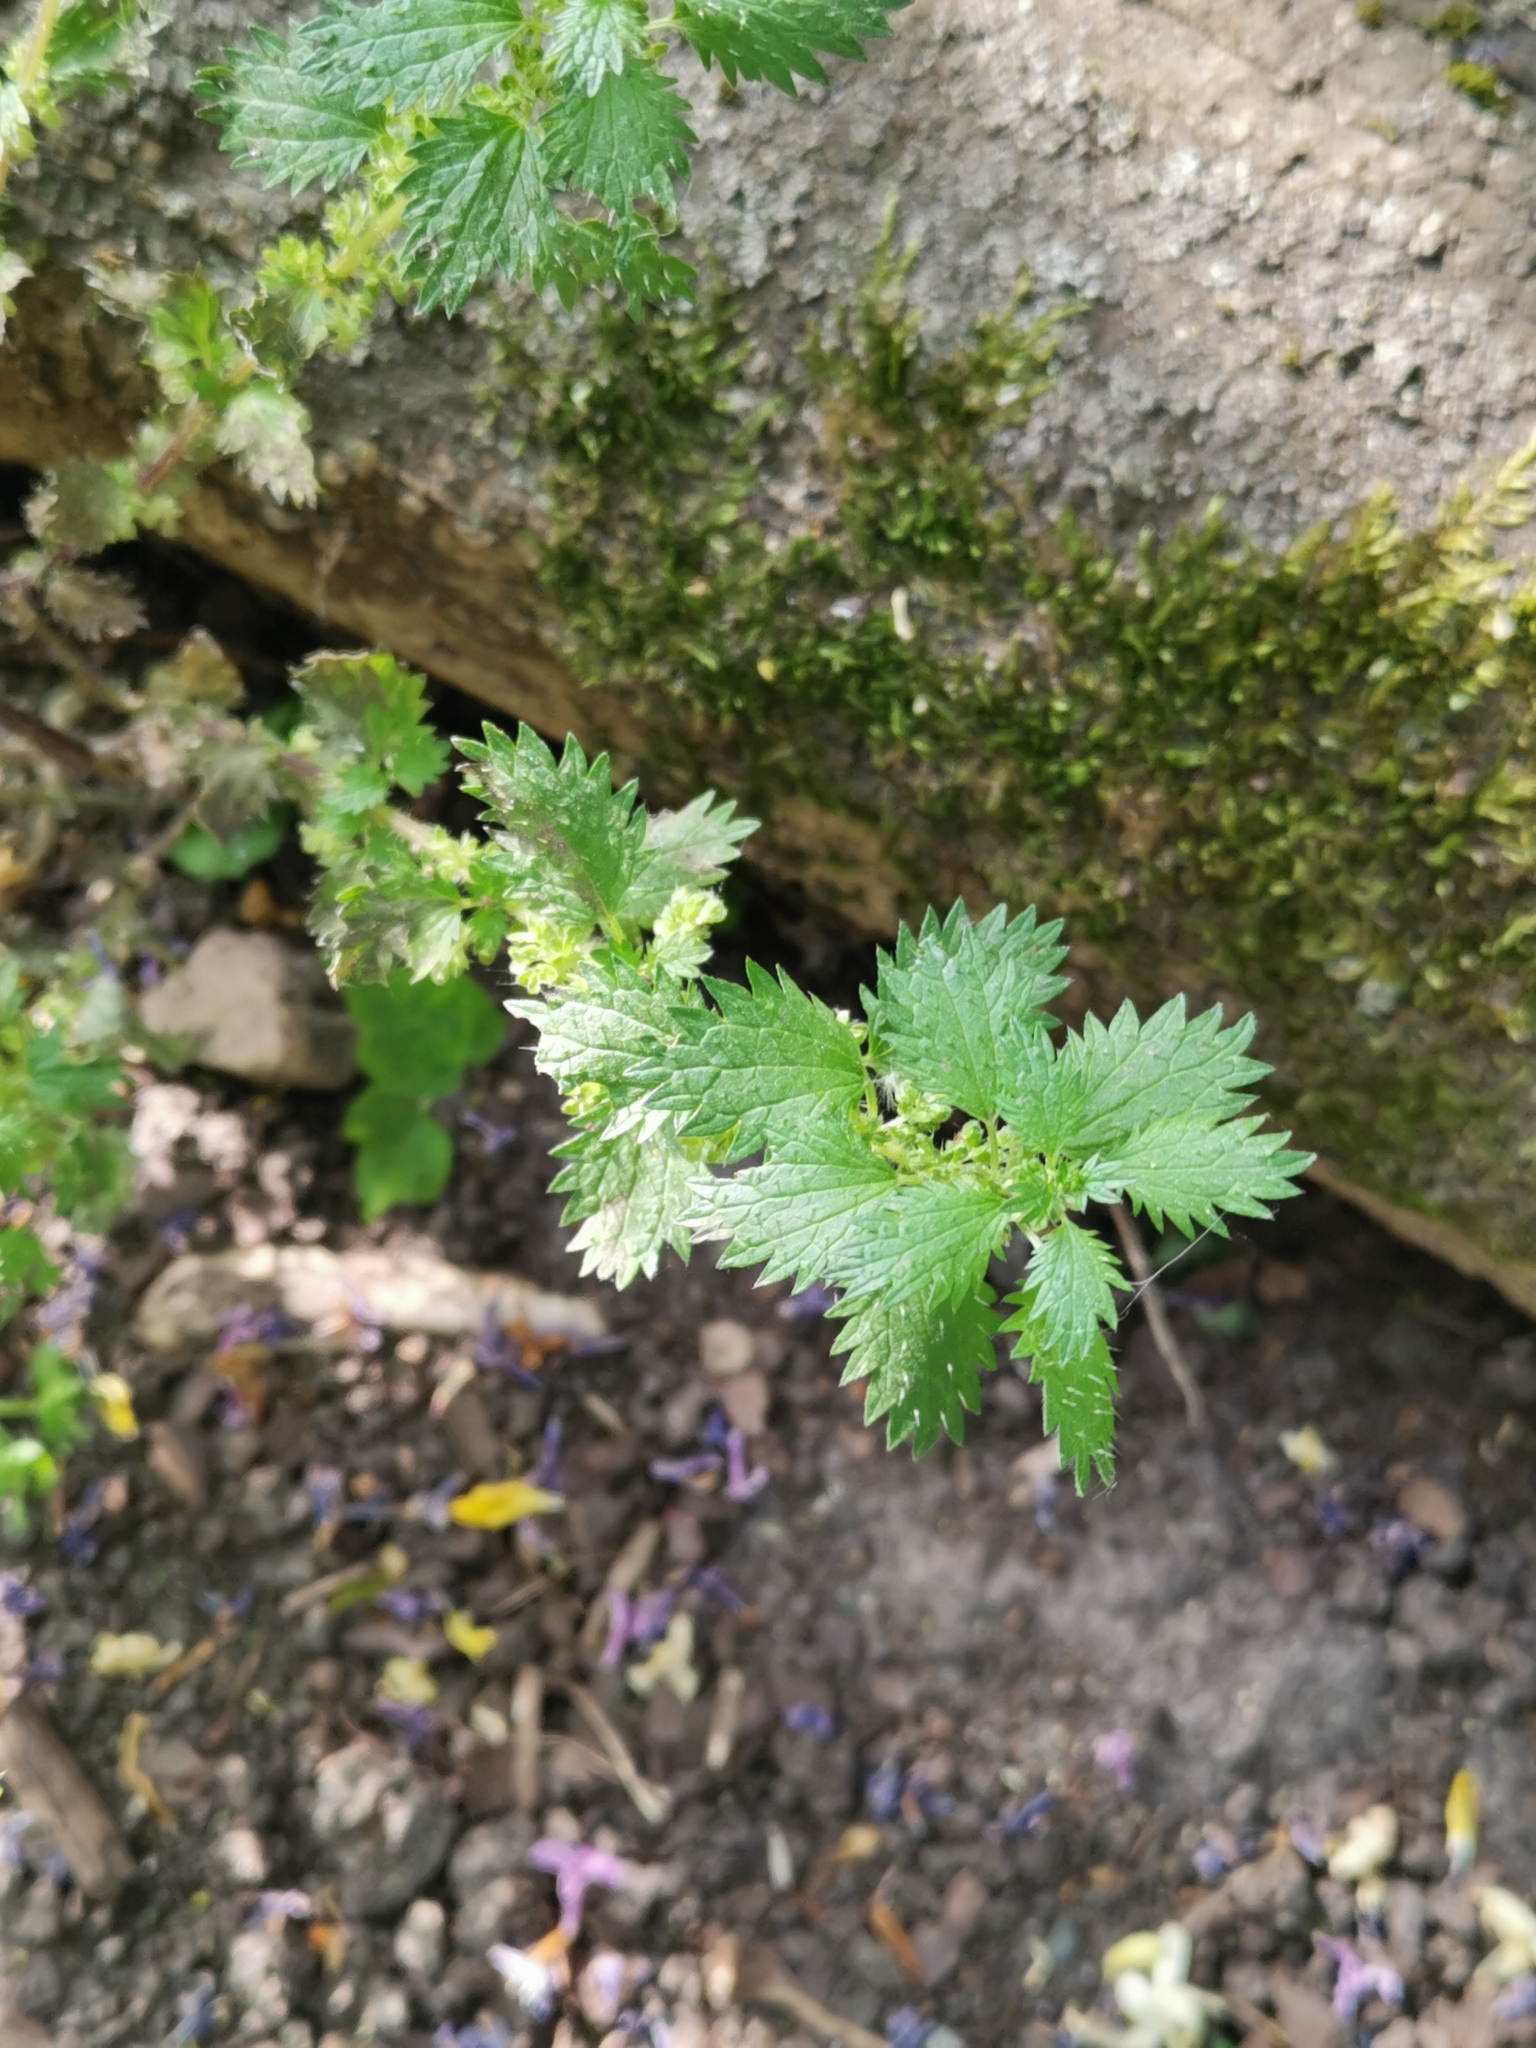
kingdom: Plantae
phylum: Tracheophyta
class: Magnoliopsida
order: Rosales
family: Urticaceae
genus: Urtica
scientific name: Urtica urens
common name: Dwarf nettle
